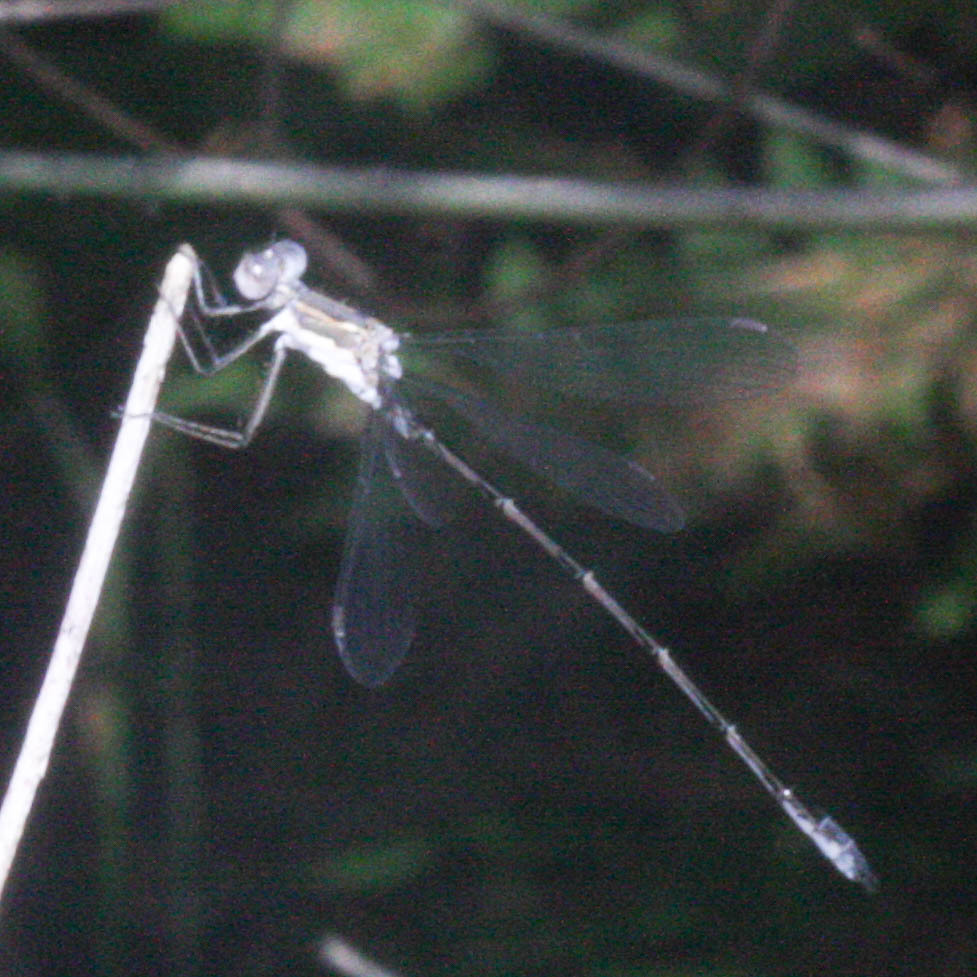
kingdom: Animalia
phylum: Arthropoda
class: Insecta
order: Odonata
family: Lestidae
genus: Lestes
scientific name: Lestes congener
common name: Spotted spreadwing
